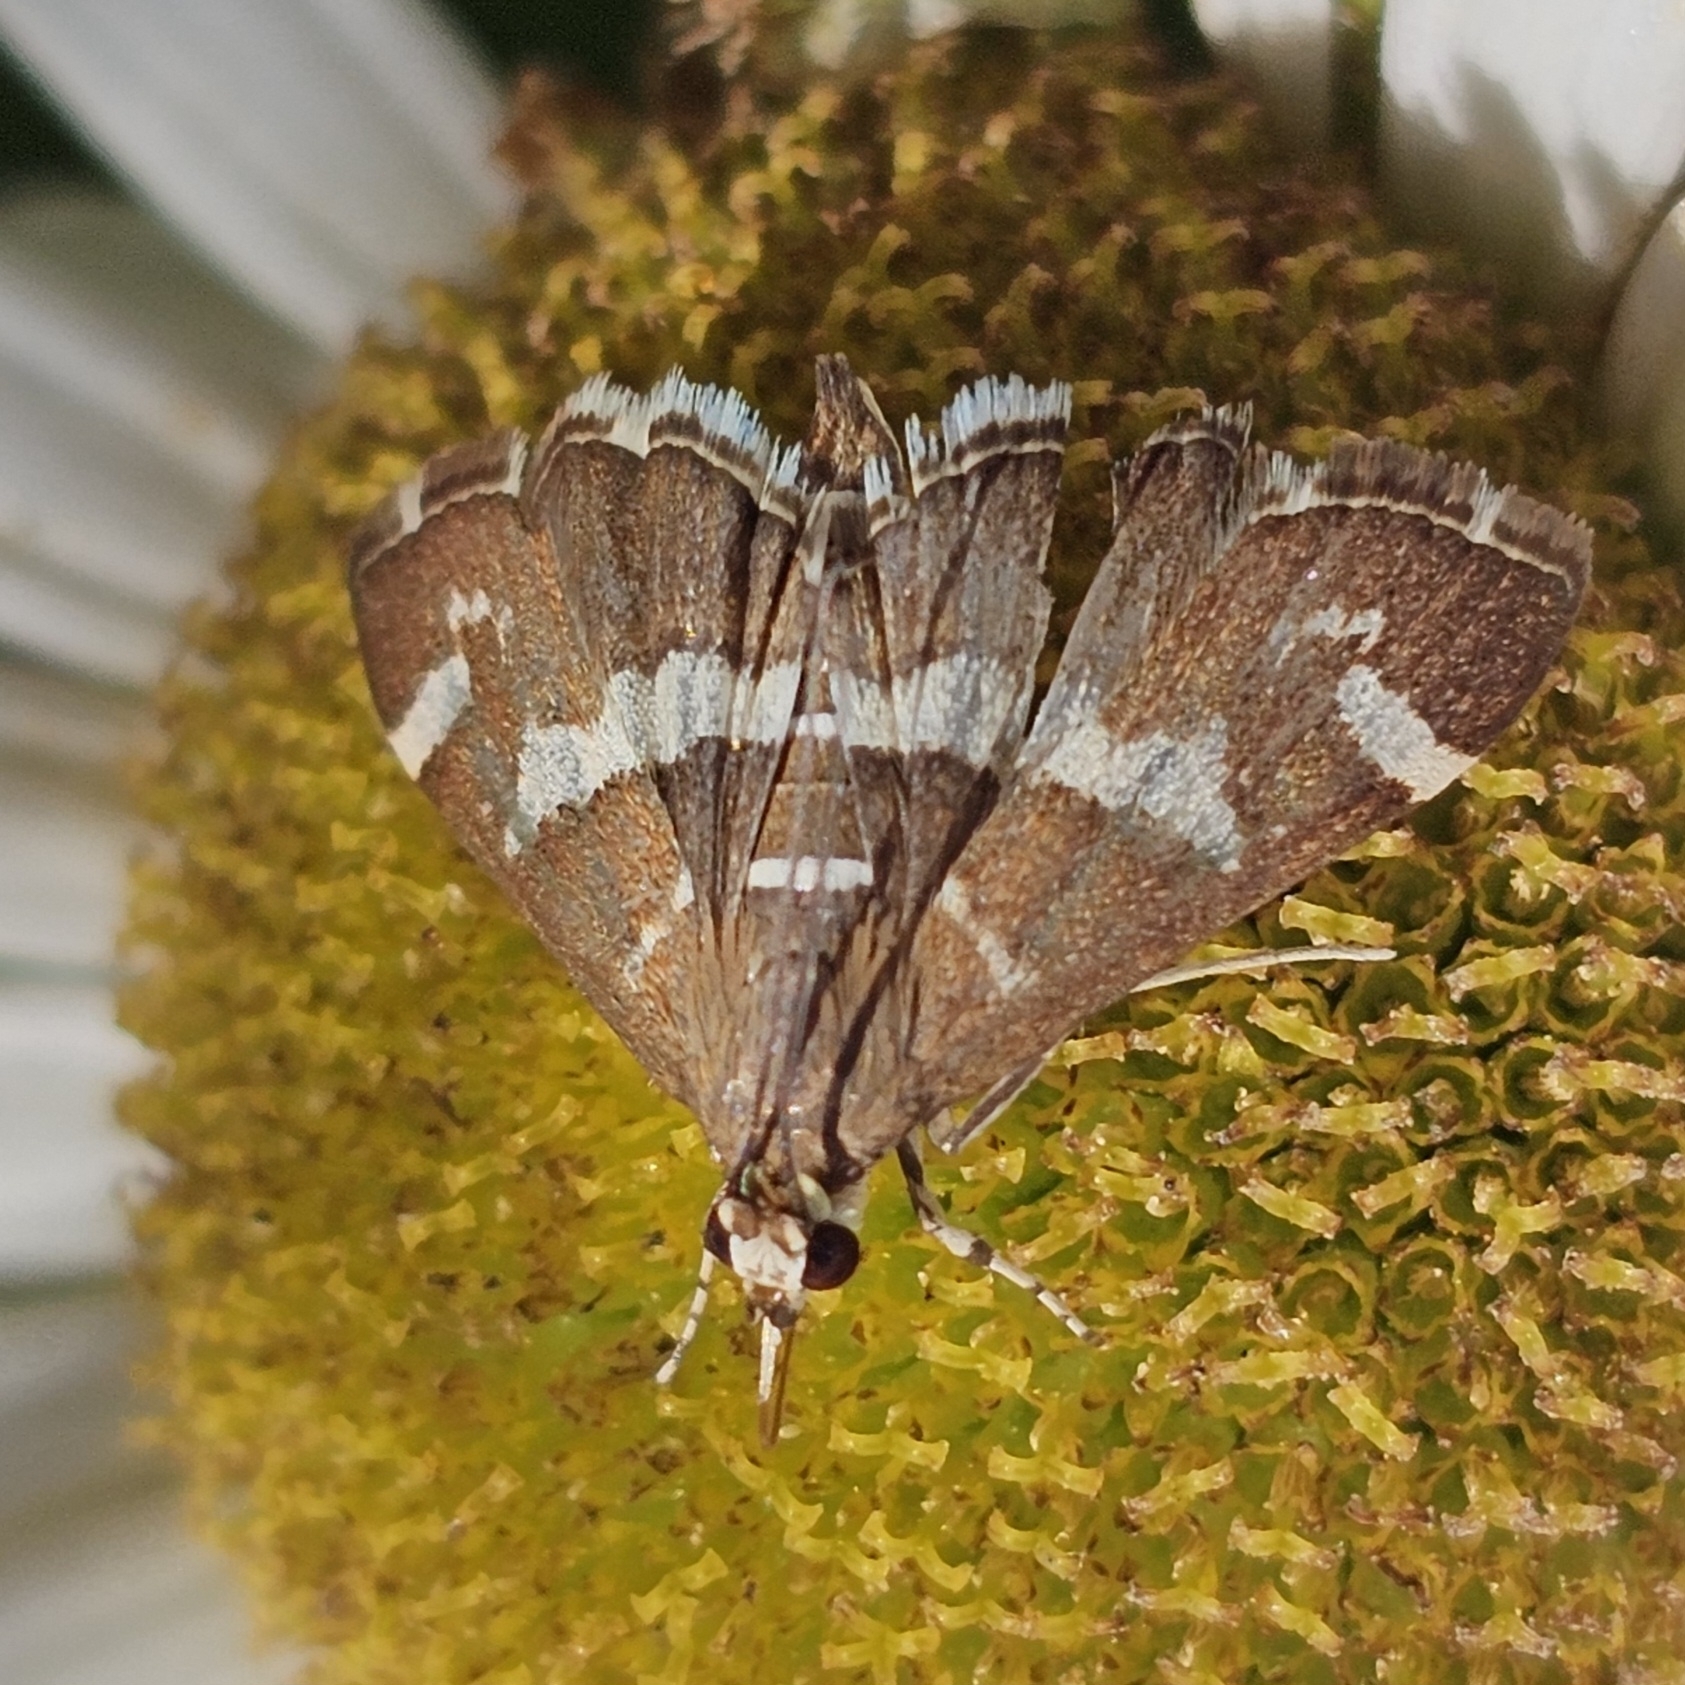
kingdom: Animalia
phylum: Arthropoda
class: Insecta
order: Lepidoptera
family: Crambidae
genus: Spoladea
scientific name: Spoladea recurvalis
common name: Beet webworm moth
